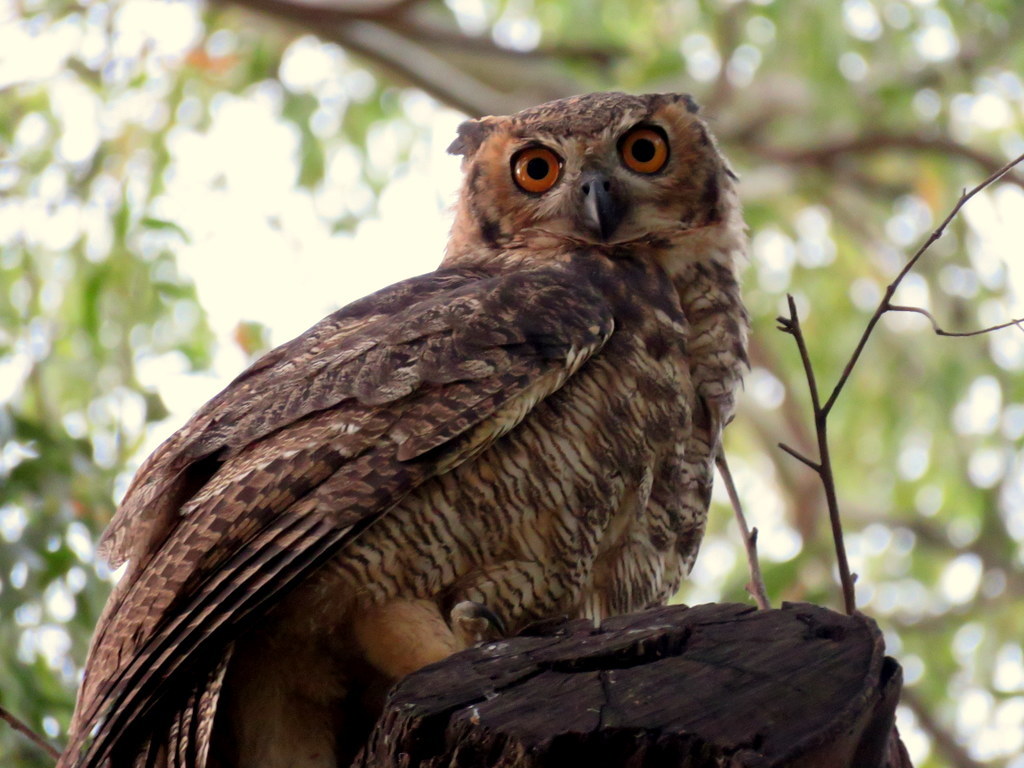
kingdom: Animalia
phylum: Chordata
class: Aves
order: Strigiformes
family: Strigidae
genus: Bubo
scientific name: Bubo virginianus
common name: Great horned owl
